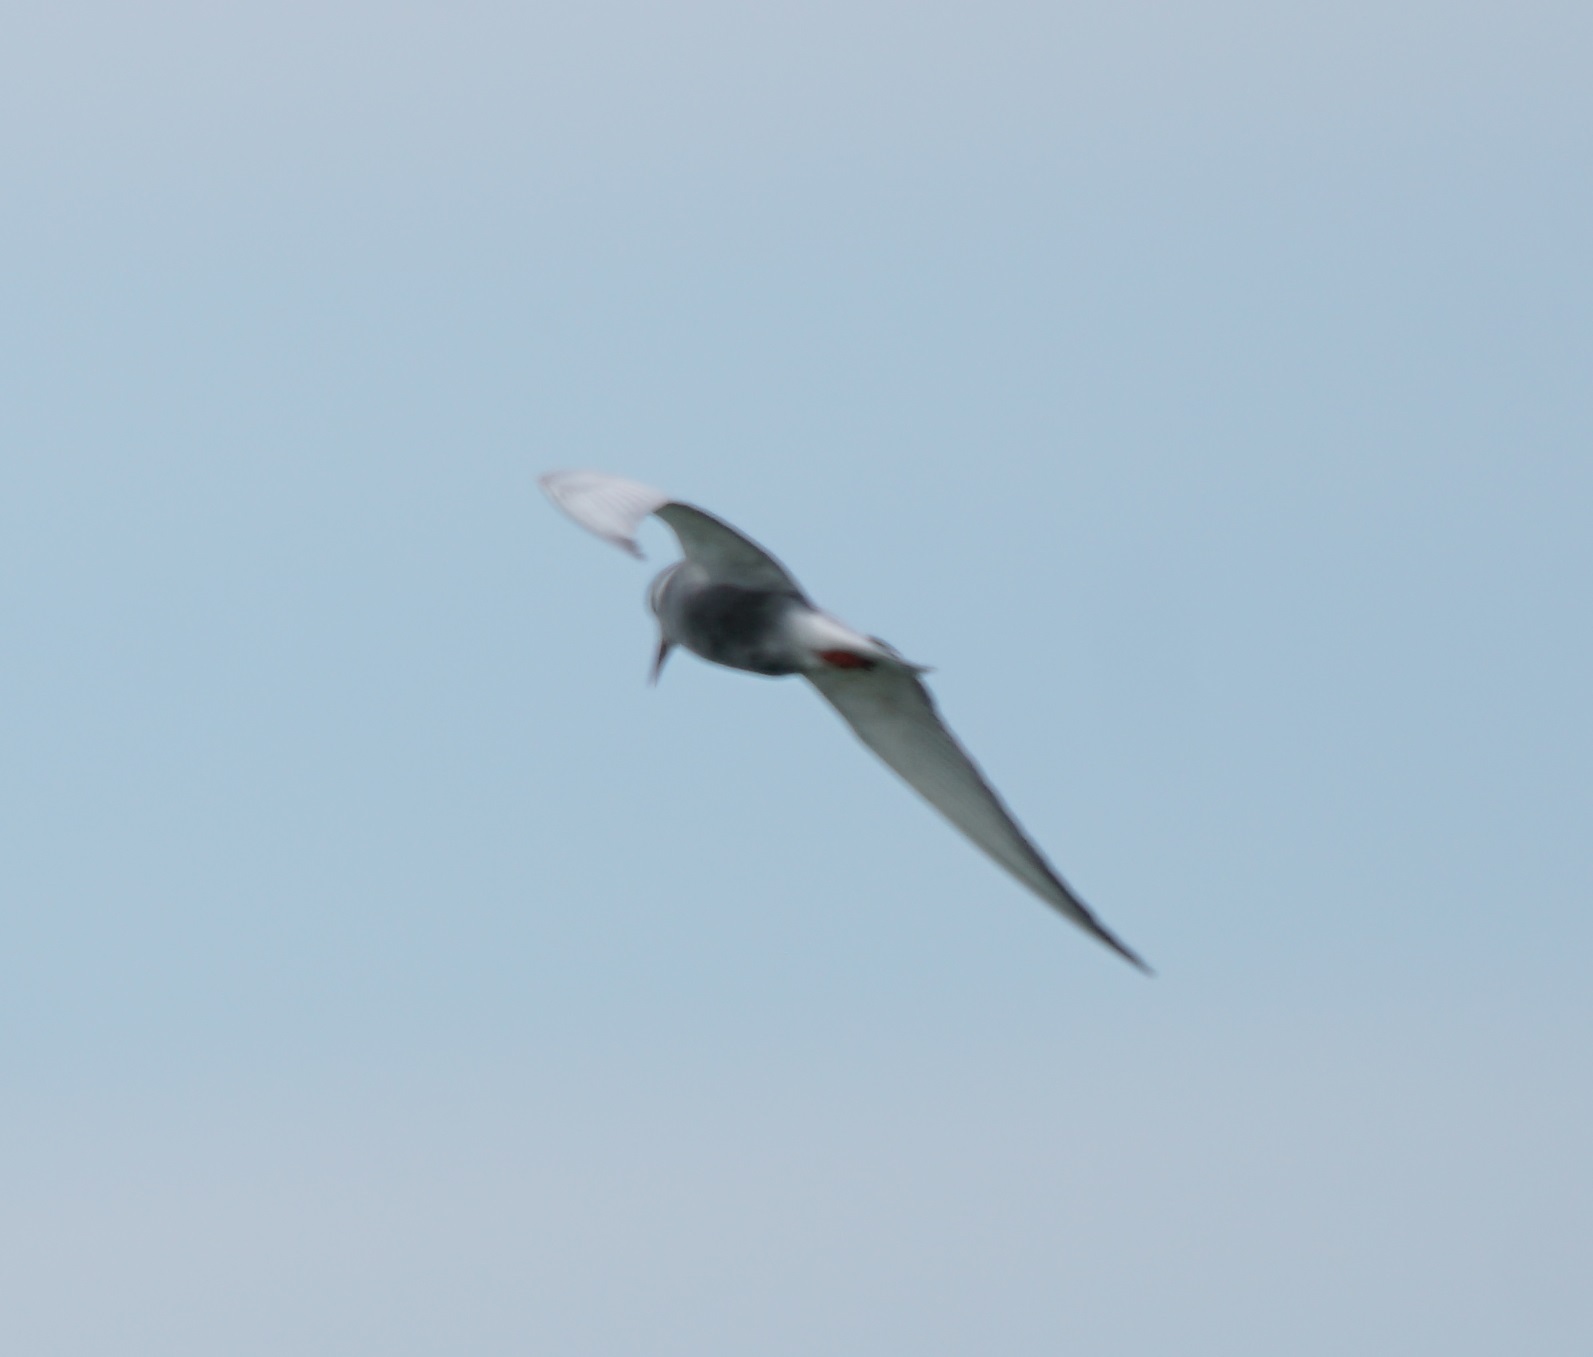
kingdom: Animalia
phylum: Chordata
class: Aves
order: Charadriiformes
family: Laridae
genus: Chlidonias
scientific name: Chlidonias hybrida
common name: Whiskered tern
